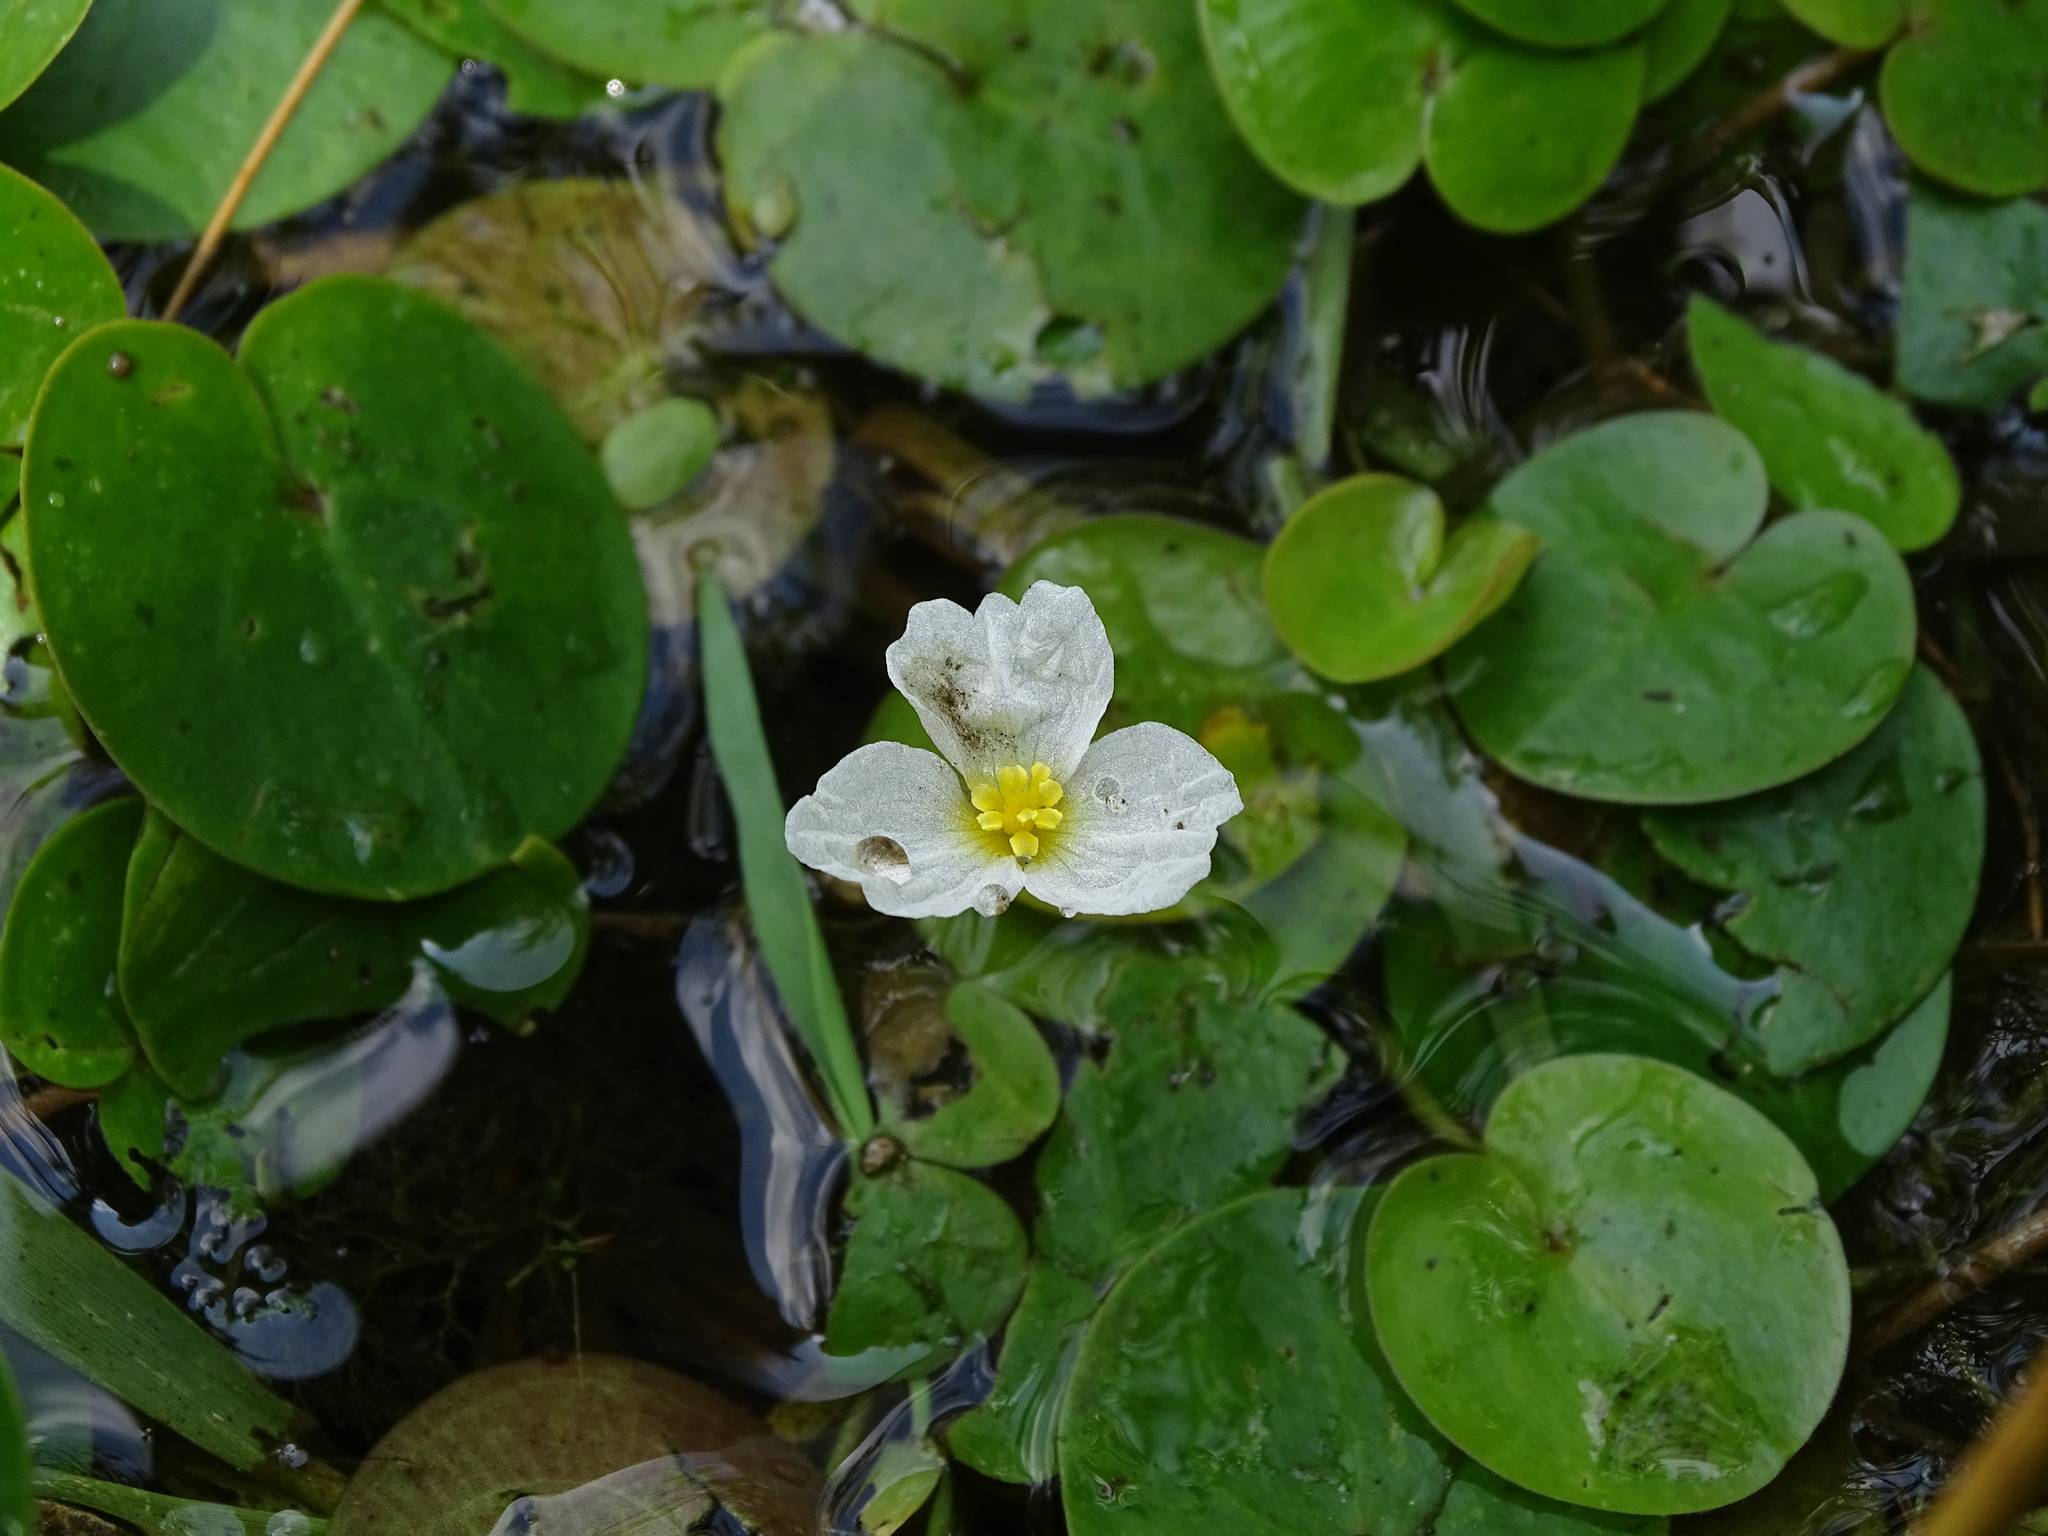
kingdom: Plantae
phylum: Tracheophyta
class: Liliopsida
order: Alismatales
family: Hydrocharitaceae
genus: Hydrocharis
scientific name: Hydrocharis morsus-ranae
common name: Frogbit
